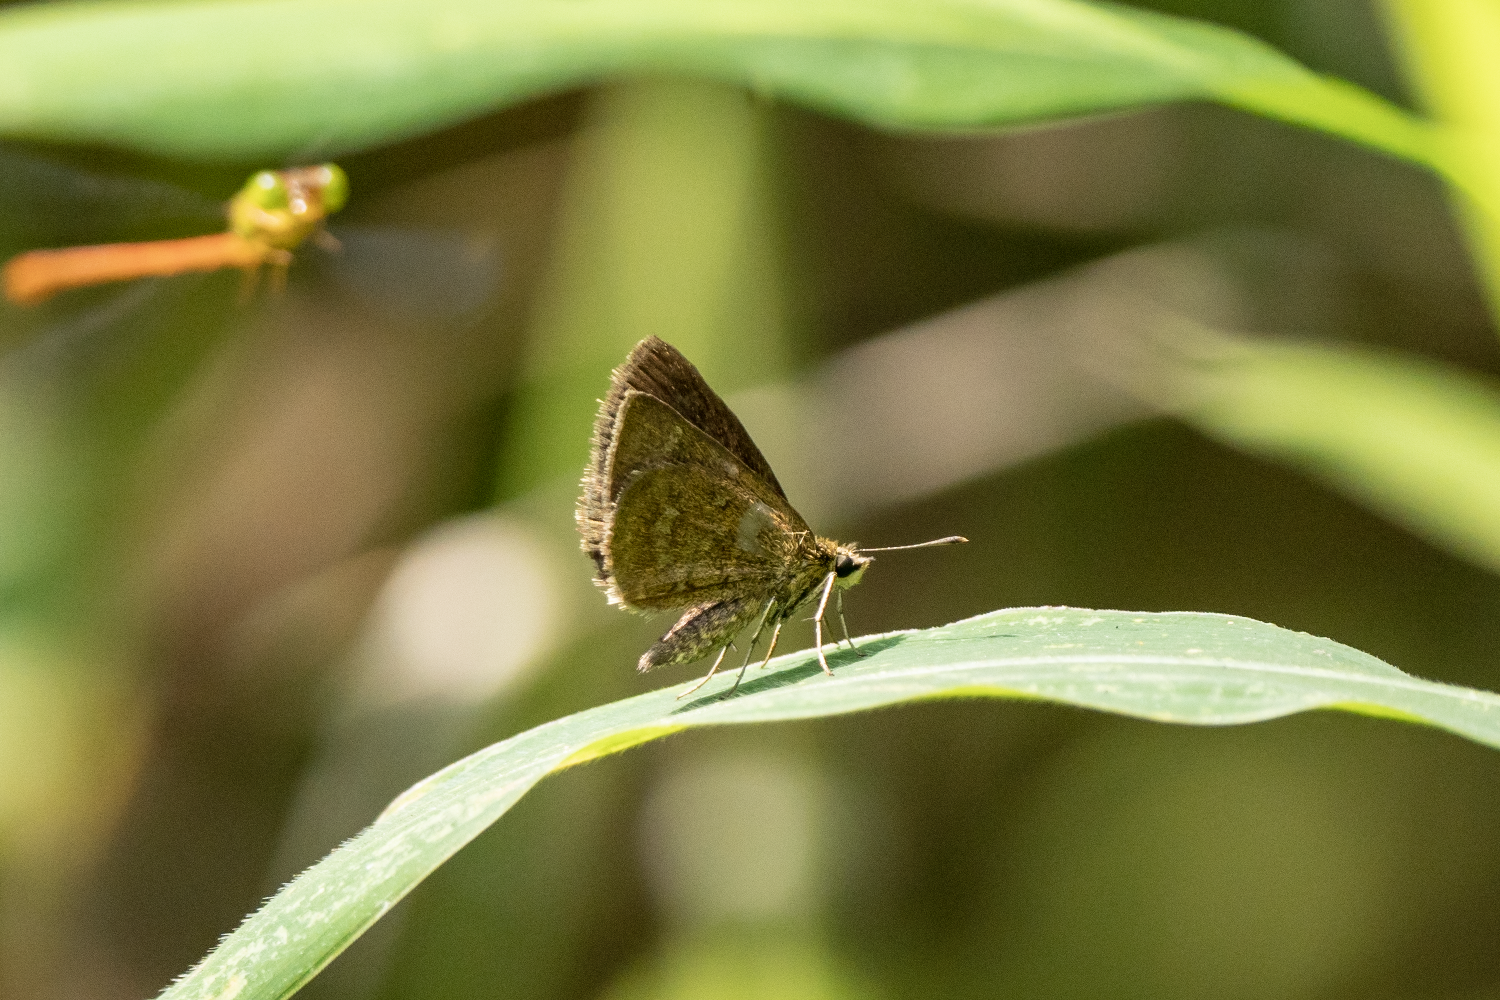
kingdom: Animalia
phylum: Arthropoda
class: Insecta
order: Lepidoptera
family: Hesperiidae
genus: Aeromachus
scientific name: Aeromachus jhora
